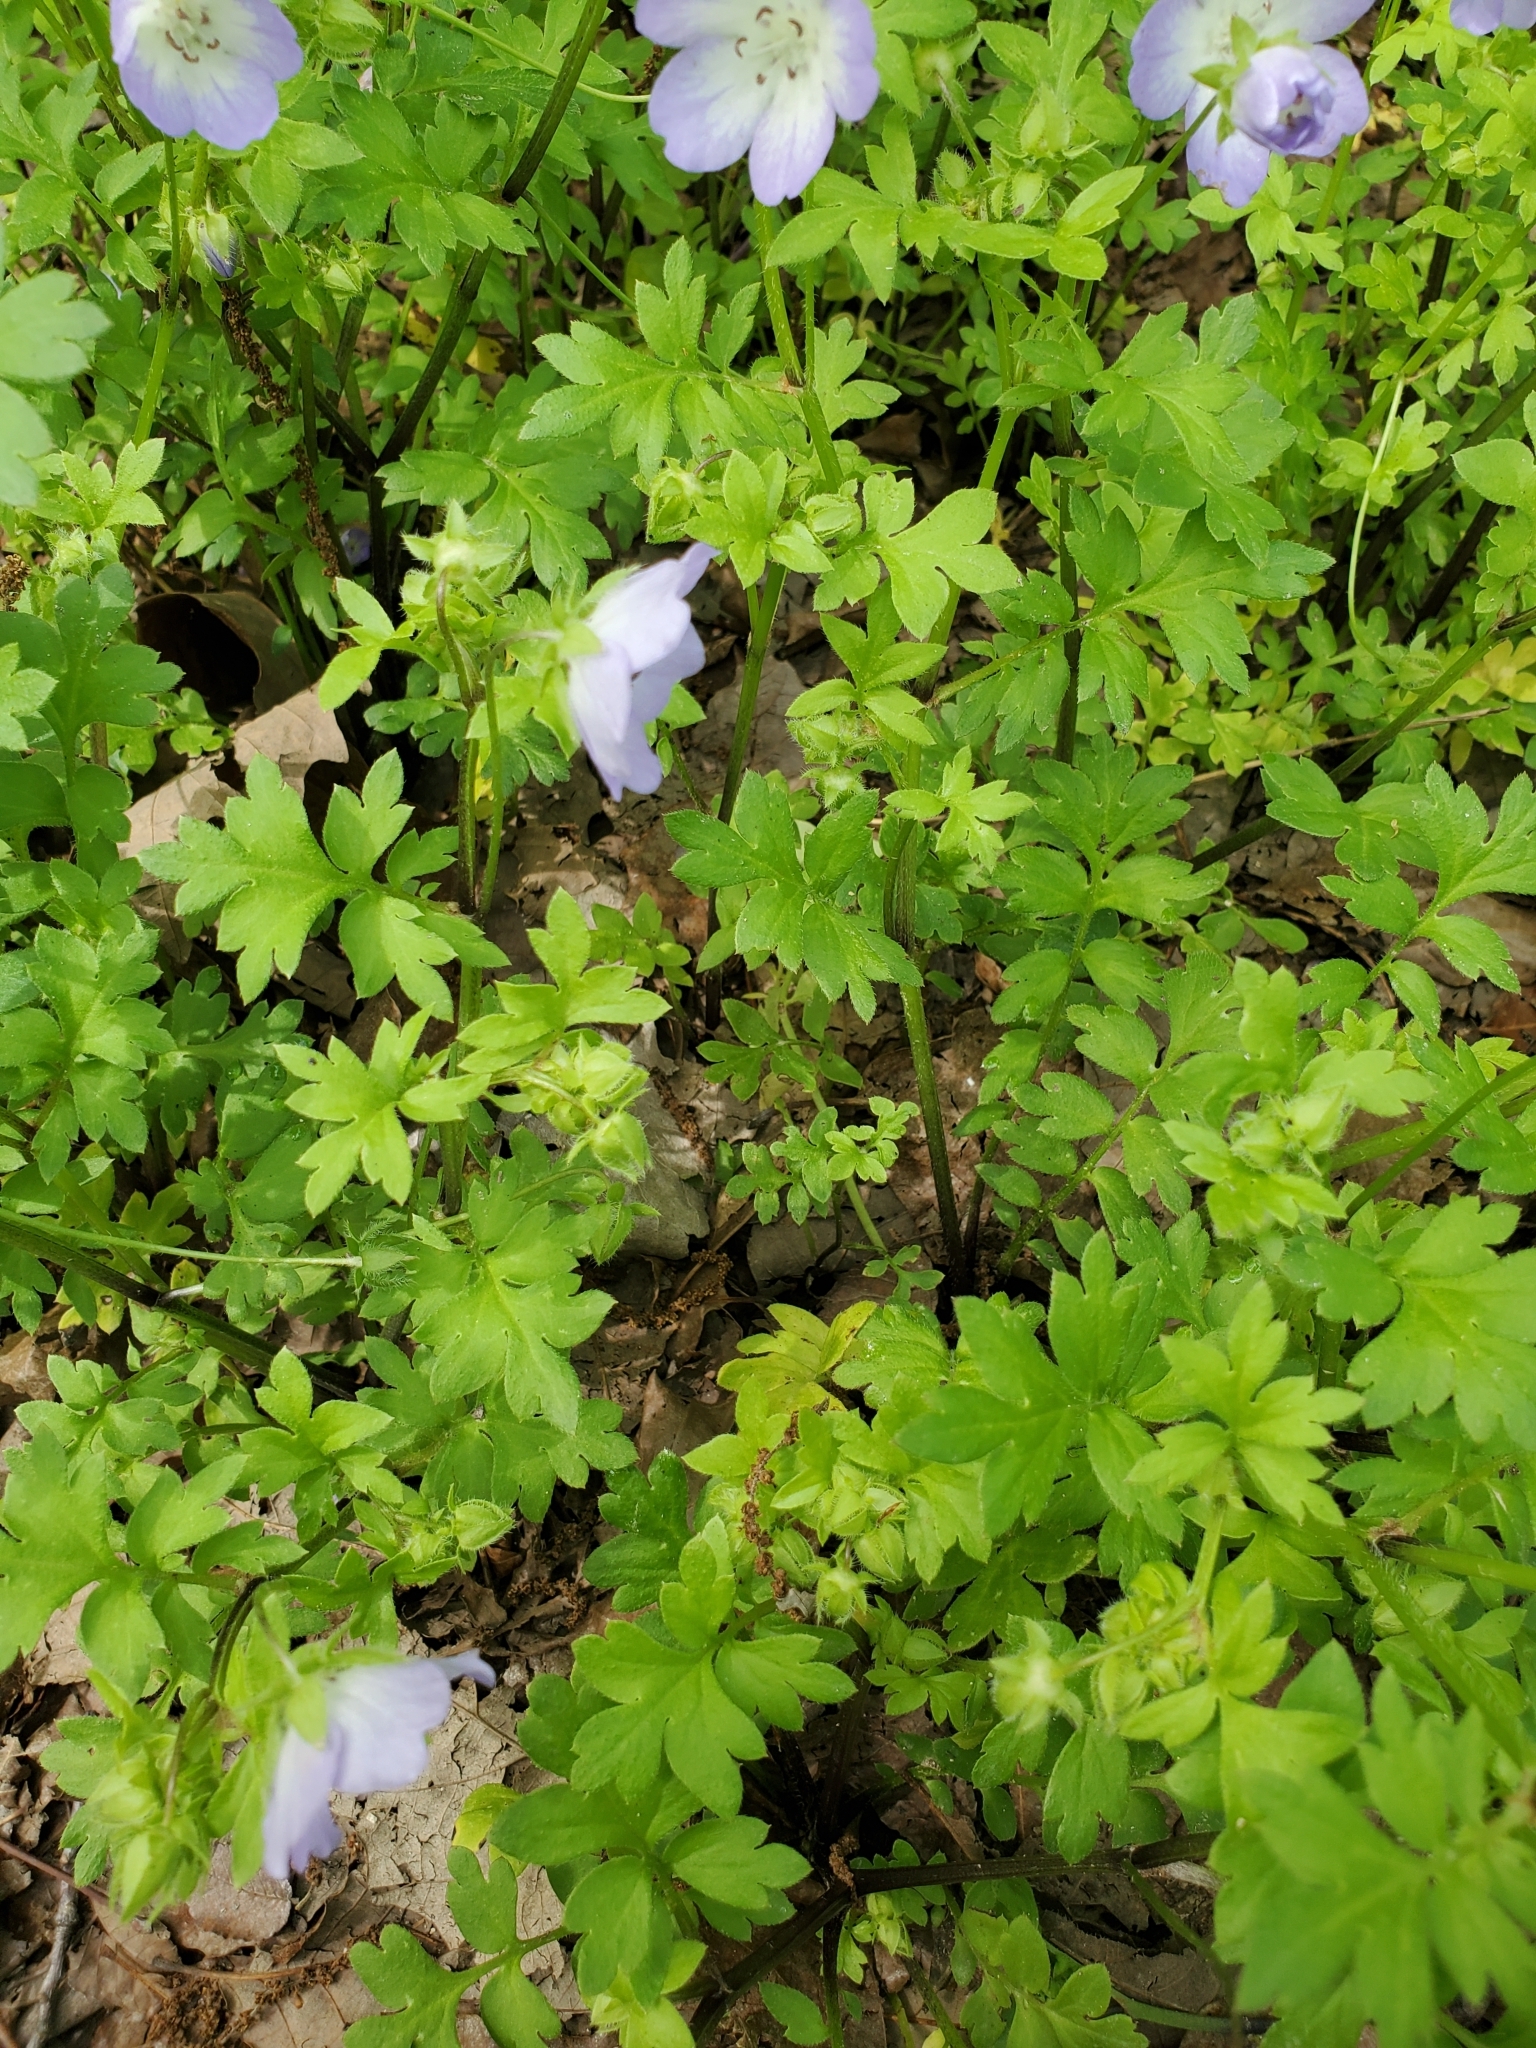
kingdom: Plantae
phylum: Tracheophyta
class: Magnoliopsida
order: Boraginales
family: Hydrophyllaceae
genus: Nemophila
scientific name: Nemophila phacelioides
